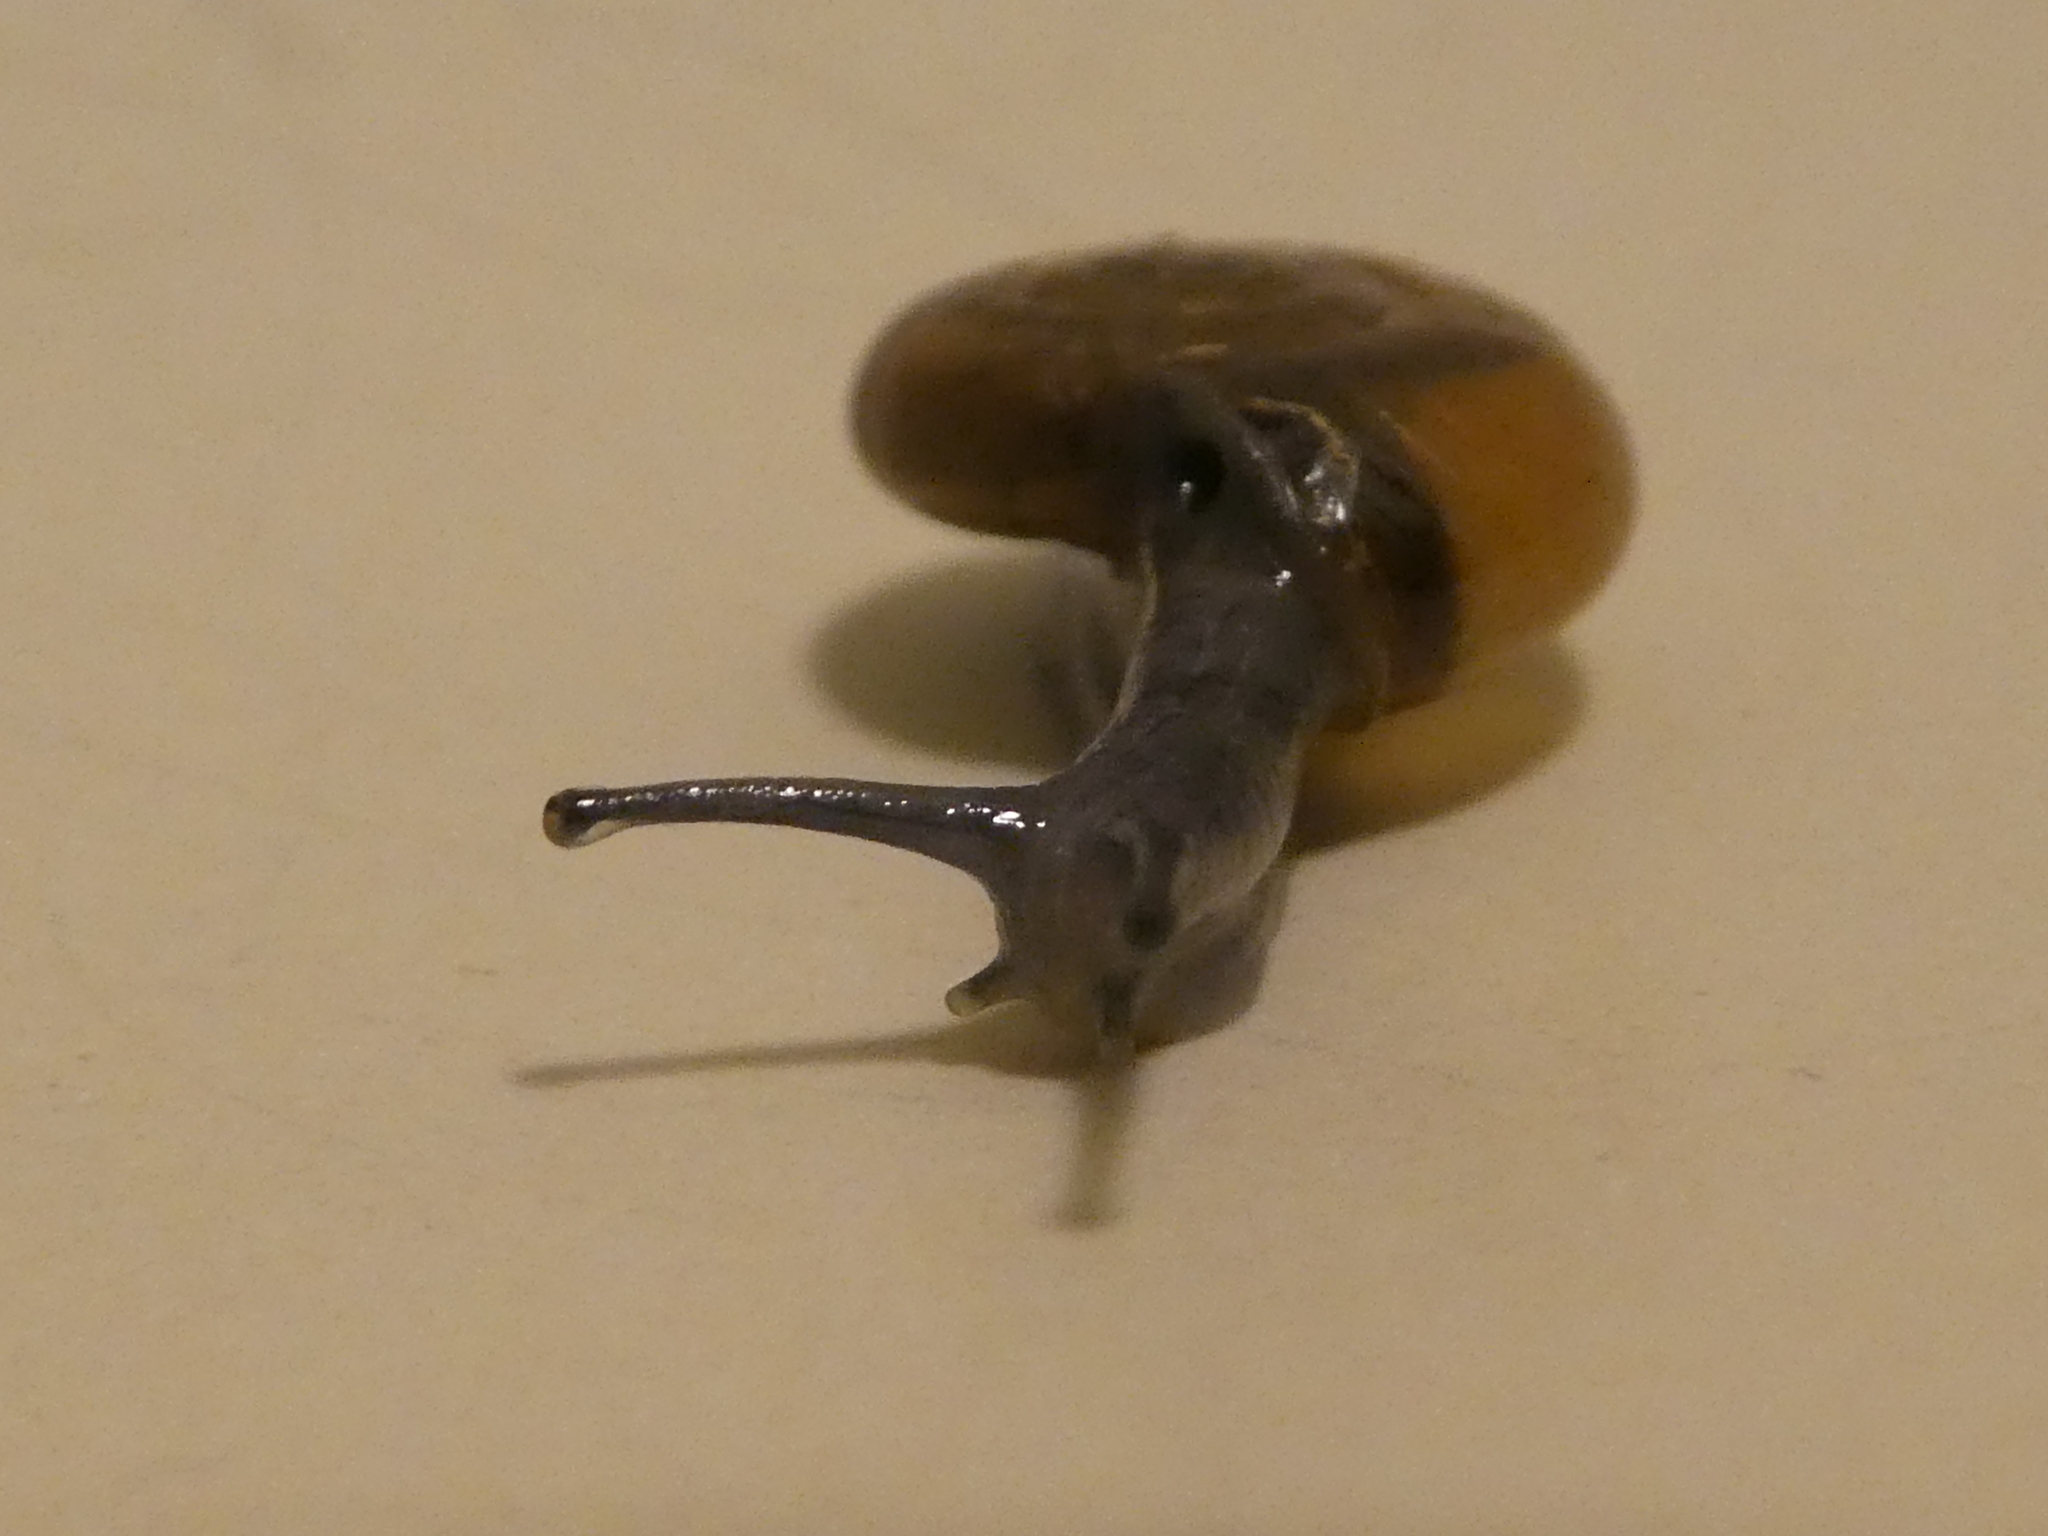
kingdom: Animalia
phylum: Mollusca
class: Gastropoda
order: Stylommatophora
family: Oxychilidae
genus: Oxychilus
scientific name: Oxychilus draparnaudi
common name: Draparnaud's glass snail
